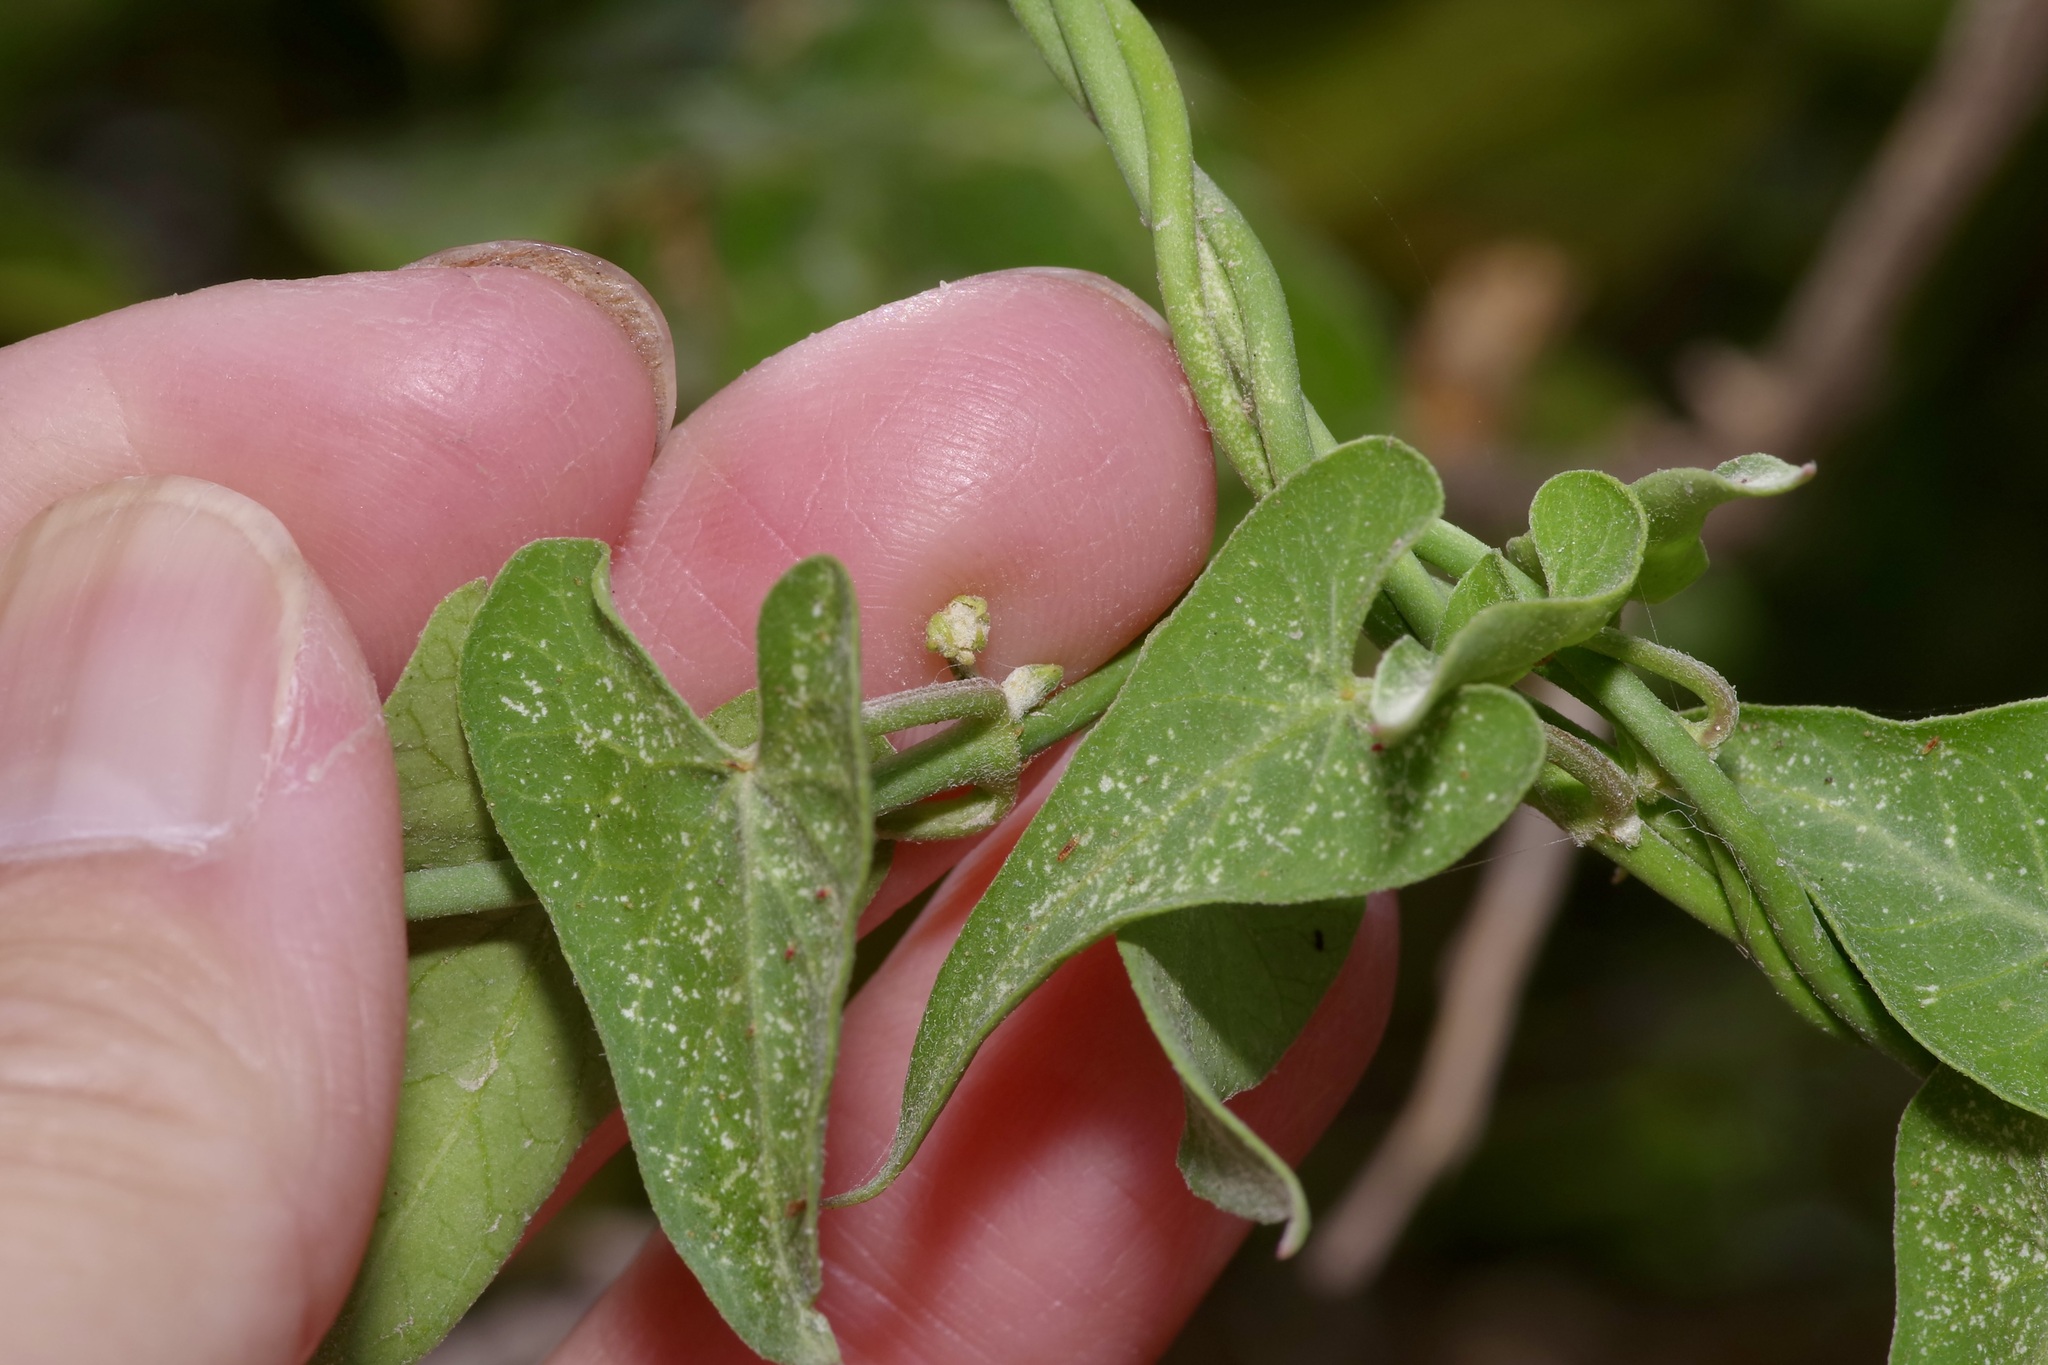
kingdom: Plantae
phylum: Tracheophyta
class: Magnoliopsida
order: Gentianales
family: Apocynaceae
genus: Funastrum
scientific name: Funastrum cynanchoides
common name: Climbing-milkweed
